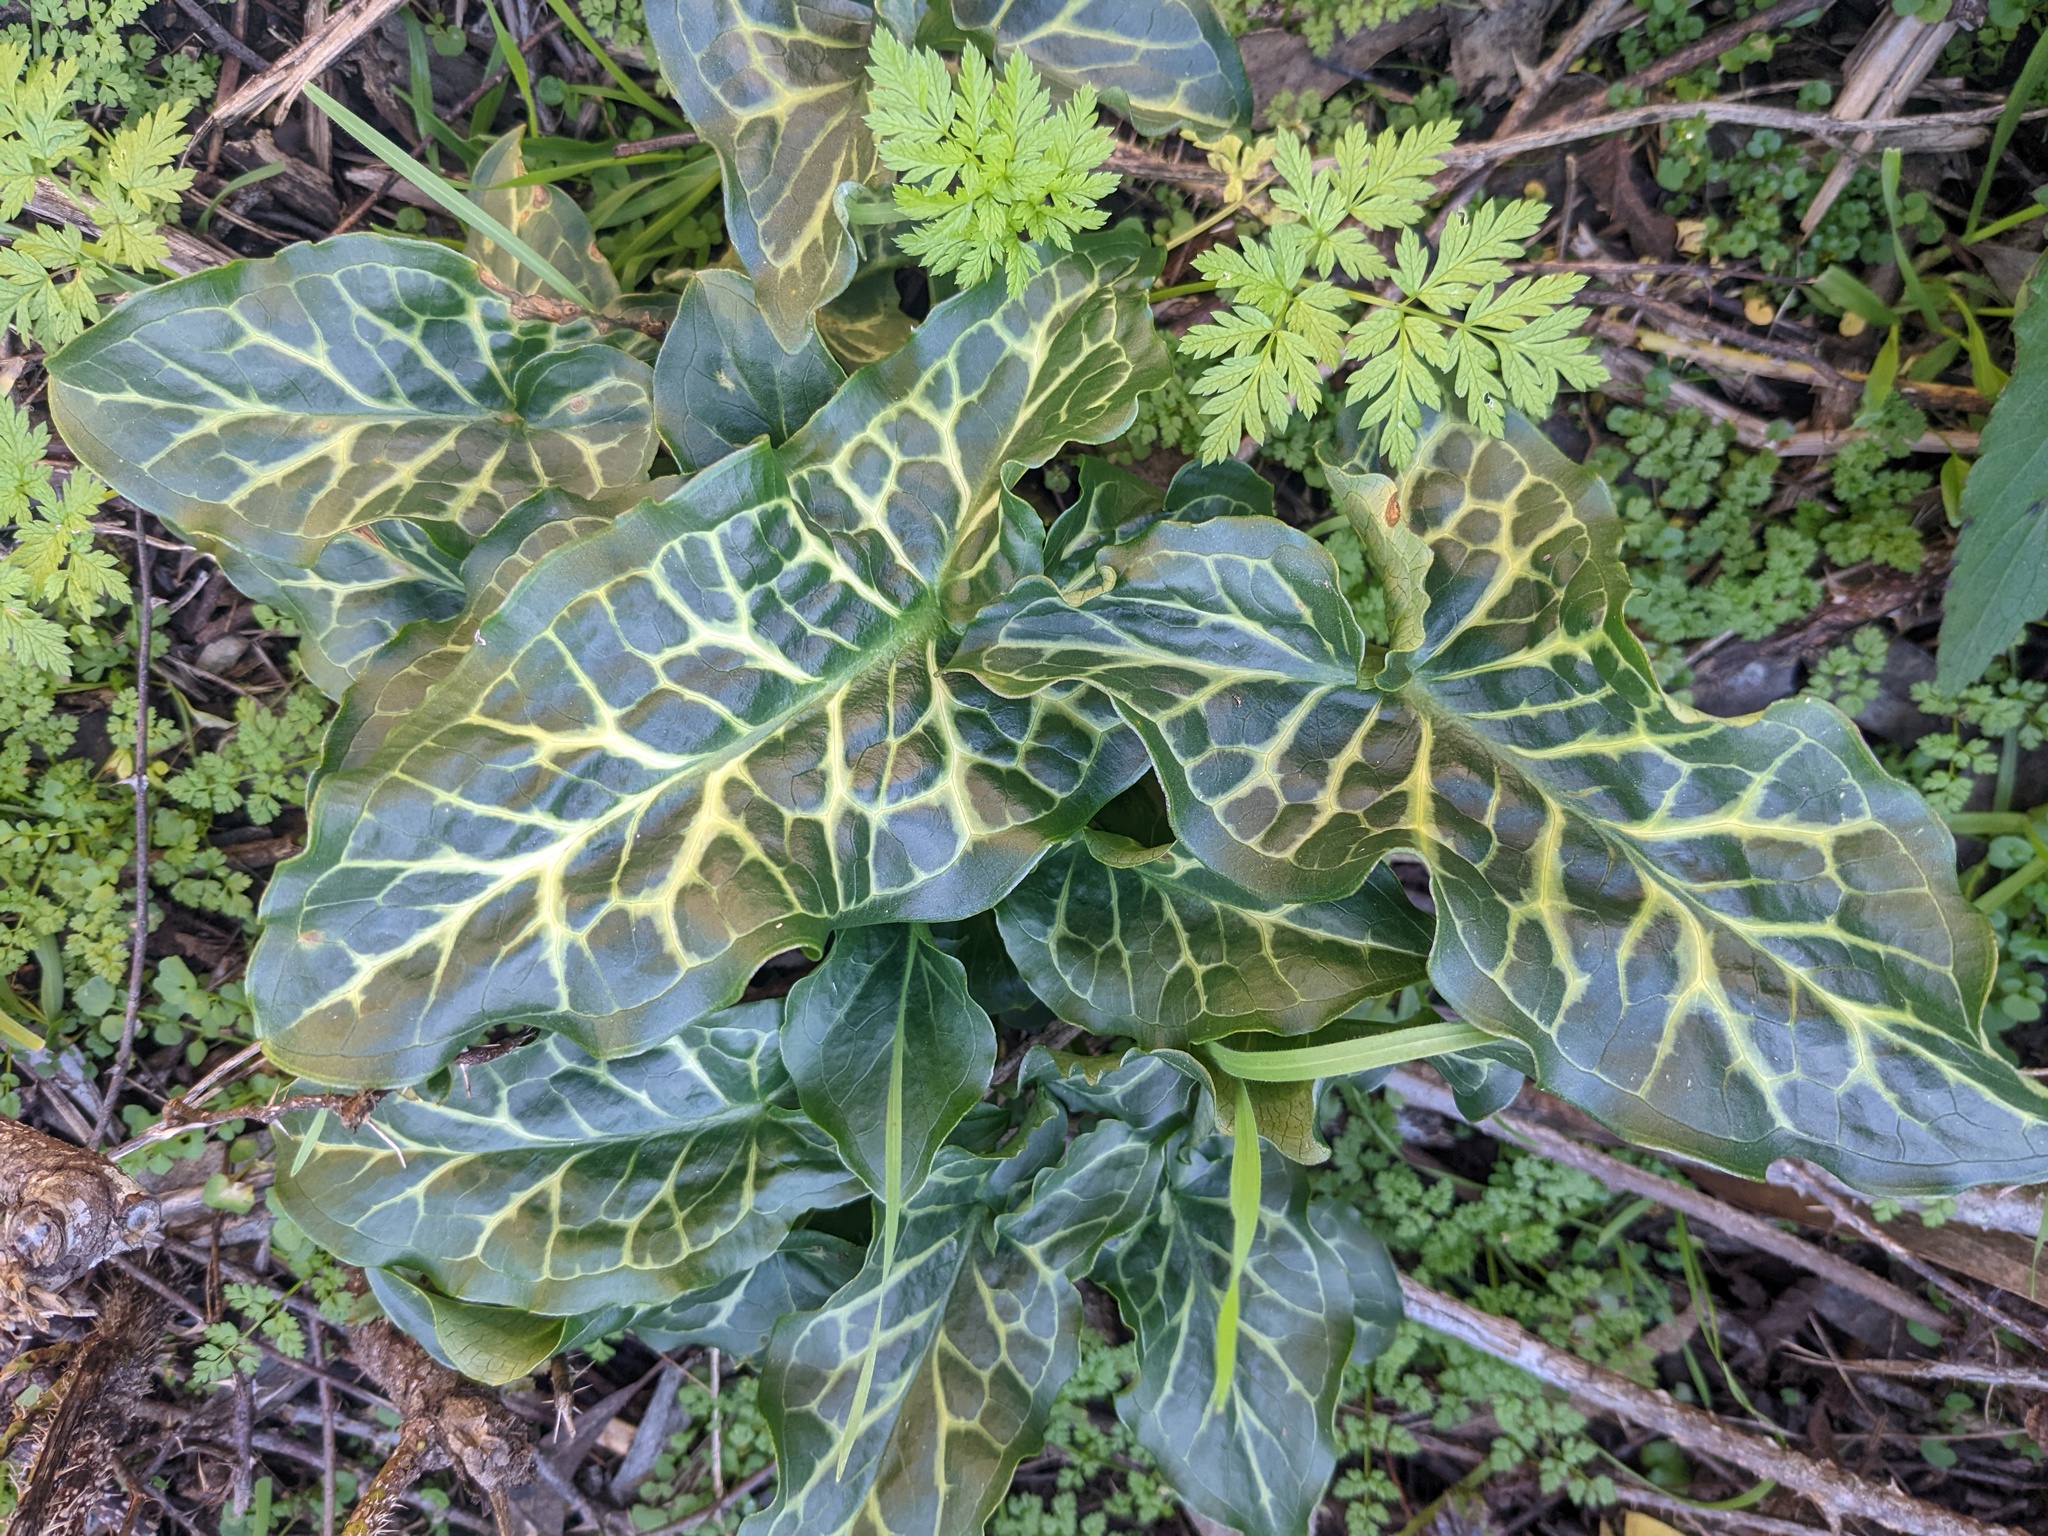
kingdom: Plantae
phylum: Tracheophyta
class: Liliopsida
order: Alismatales
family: Araceae
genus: Arum
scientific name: Arum italicum
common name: Italian lords-and-ladies
